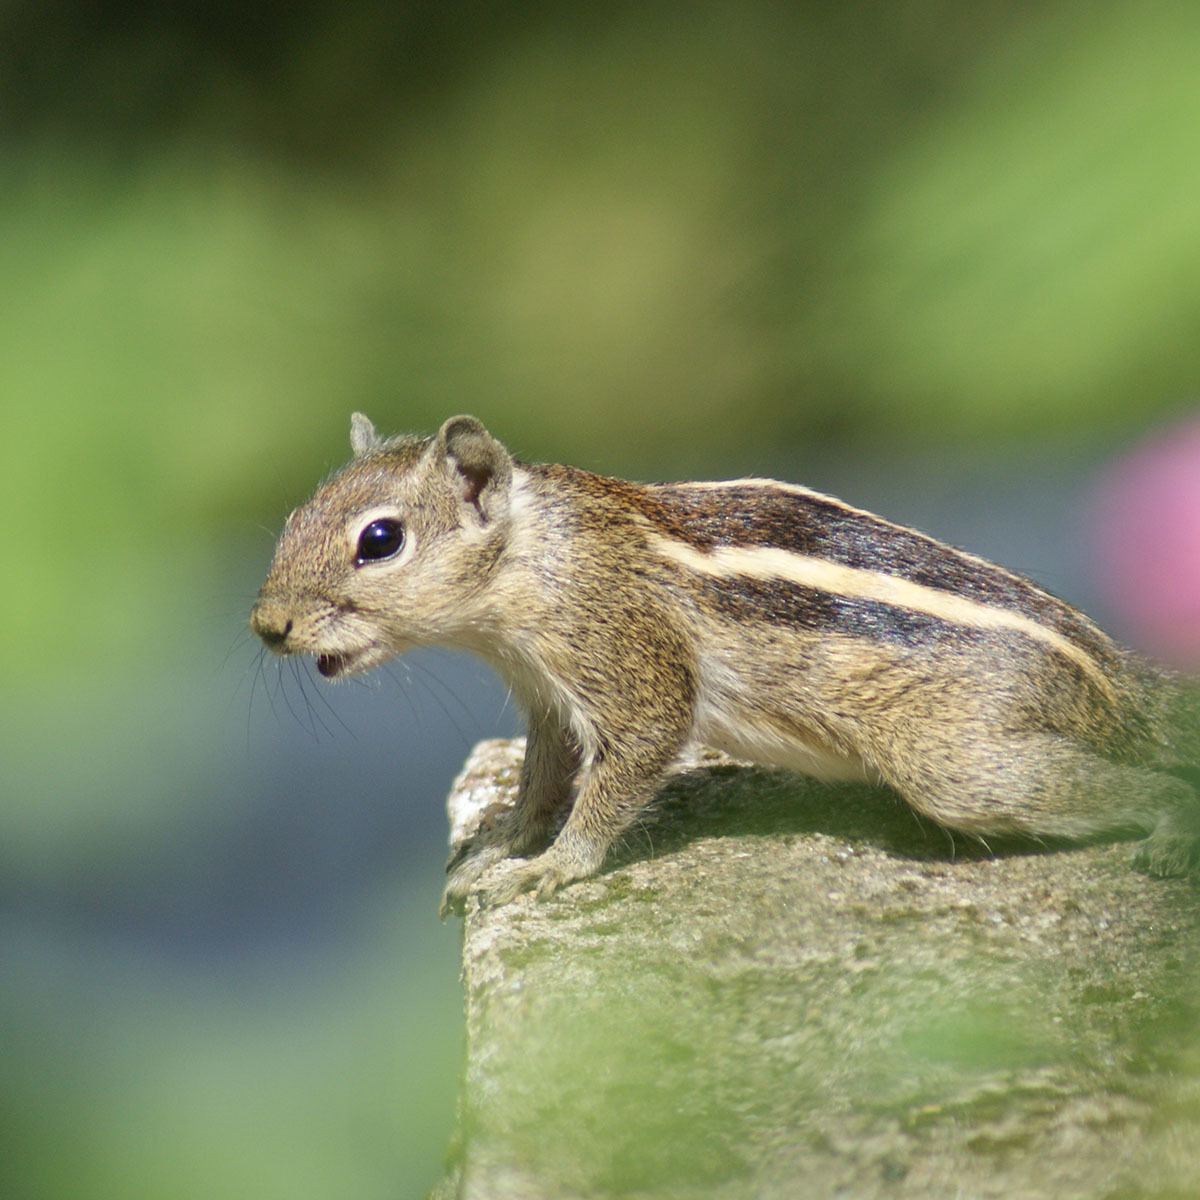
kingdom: Animalia
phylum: Chordata
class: Mammalia
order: Rodentia
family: Sciuridae
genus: Funambulus
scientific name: Funambulus palmarum
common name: Indian palm squirrel
